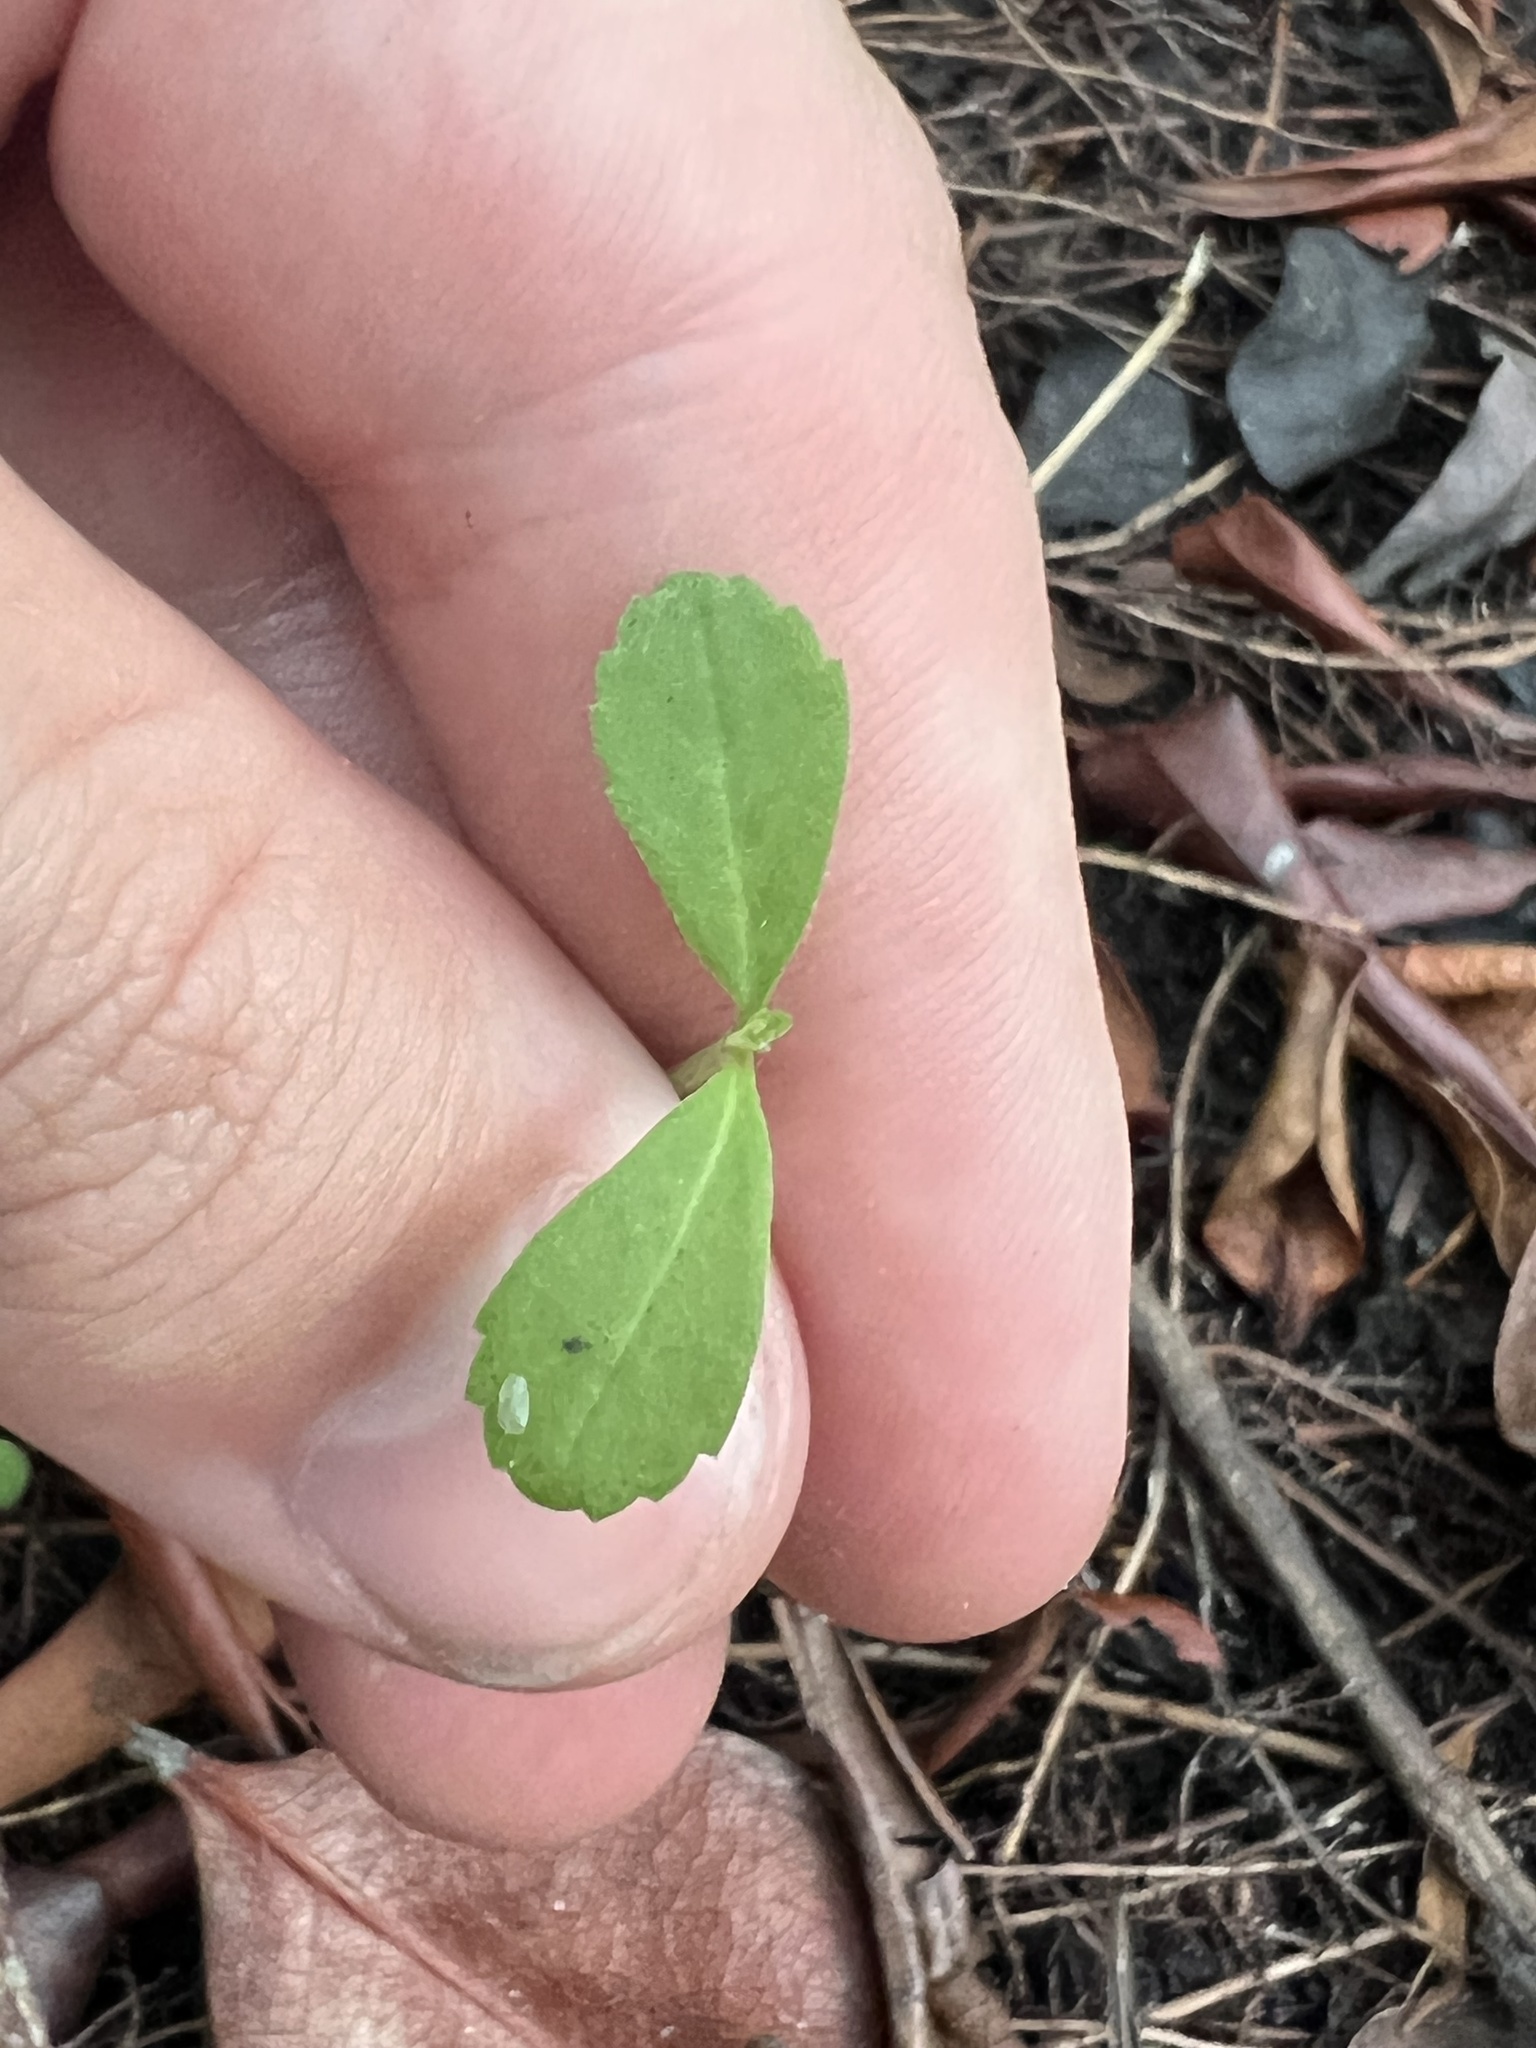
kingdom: Plantae
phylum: Tracheophyta
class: Magnoliopsida
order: Lamiales
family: Verbenaceae
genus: Phyla
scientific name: Phyla nodiflora
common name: Frogfruit
